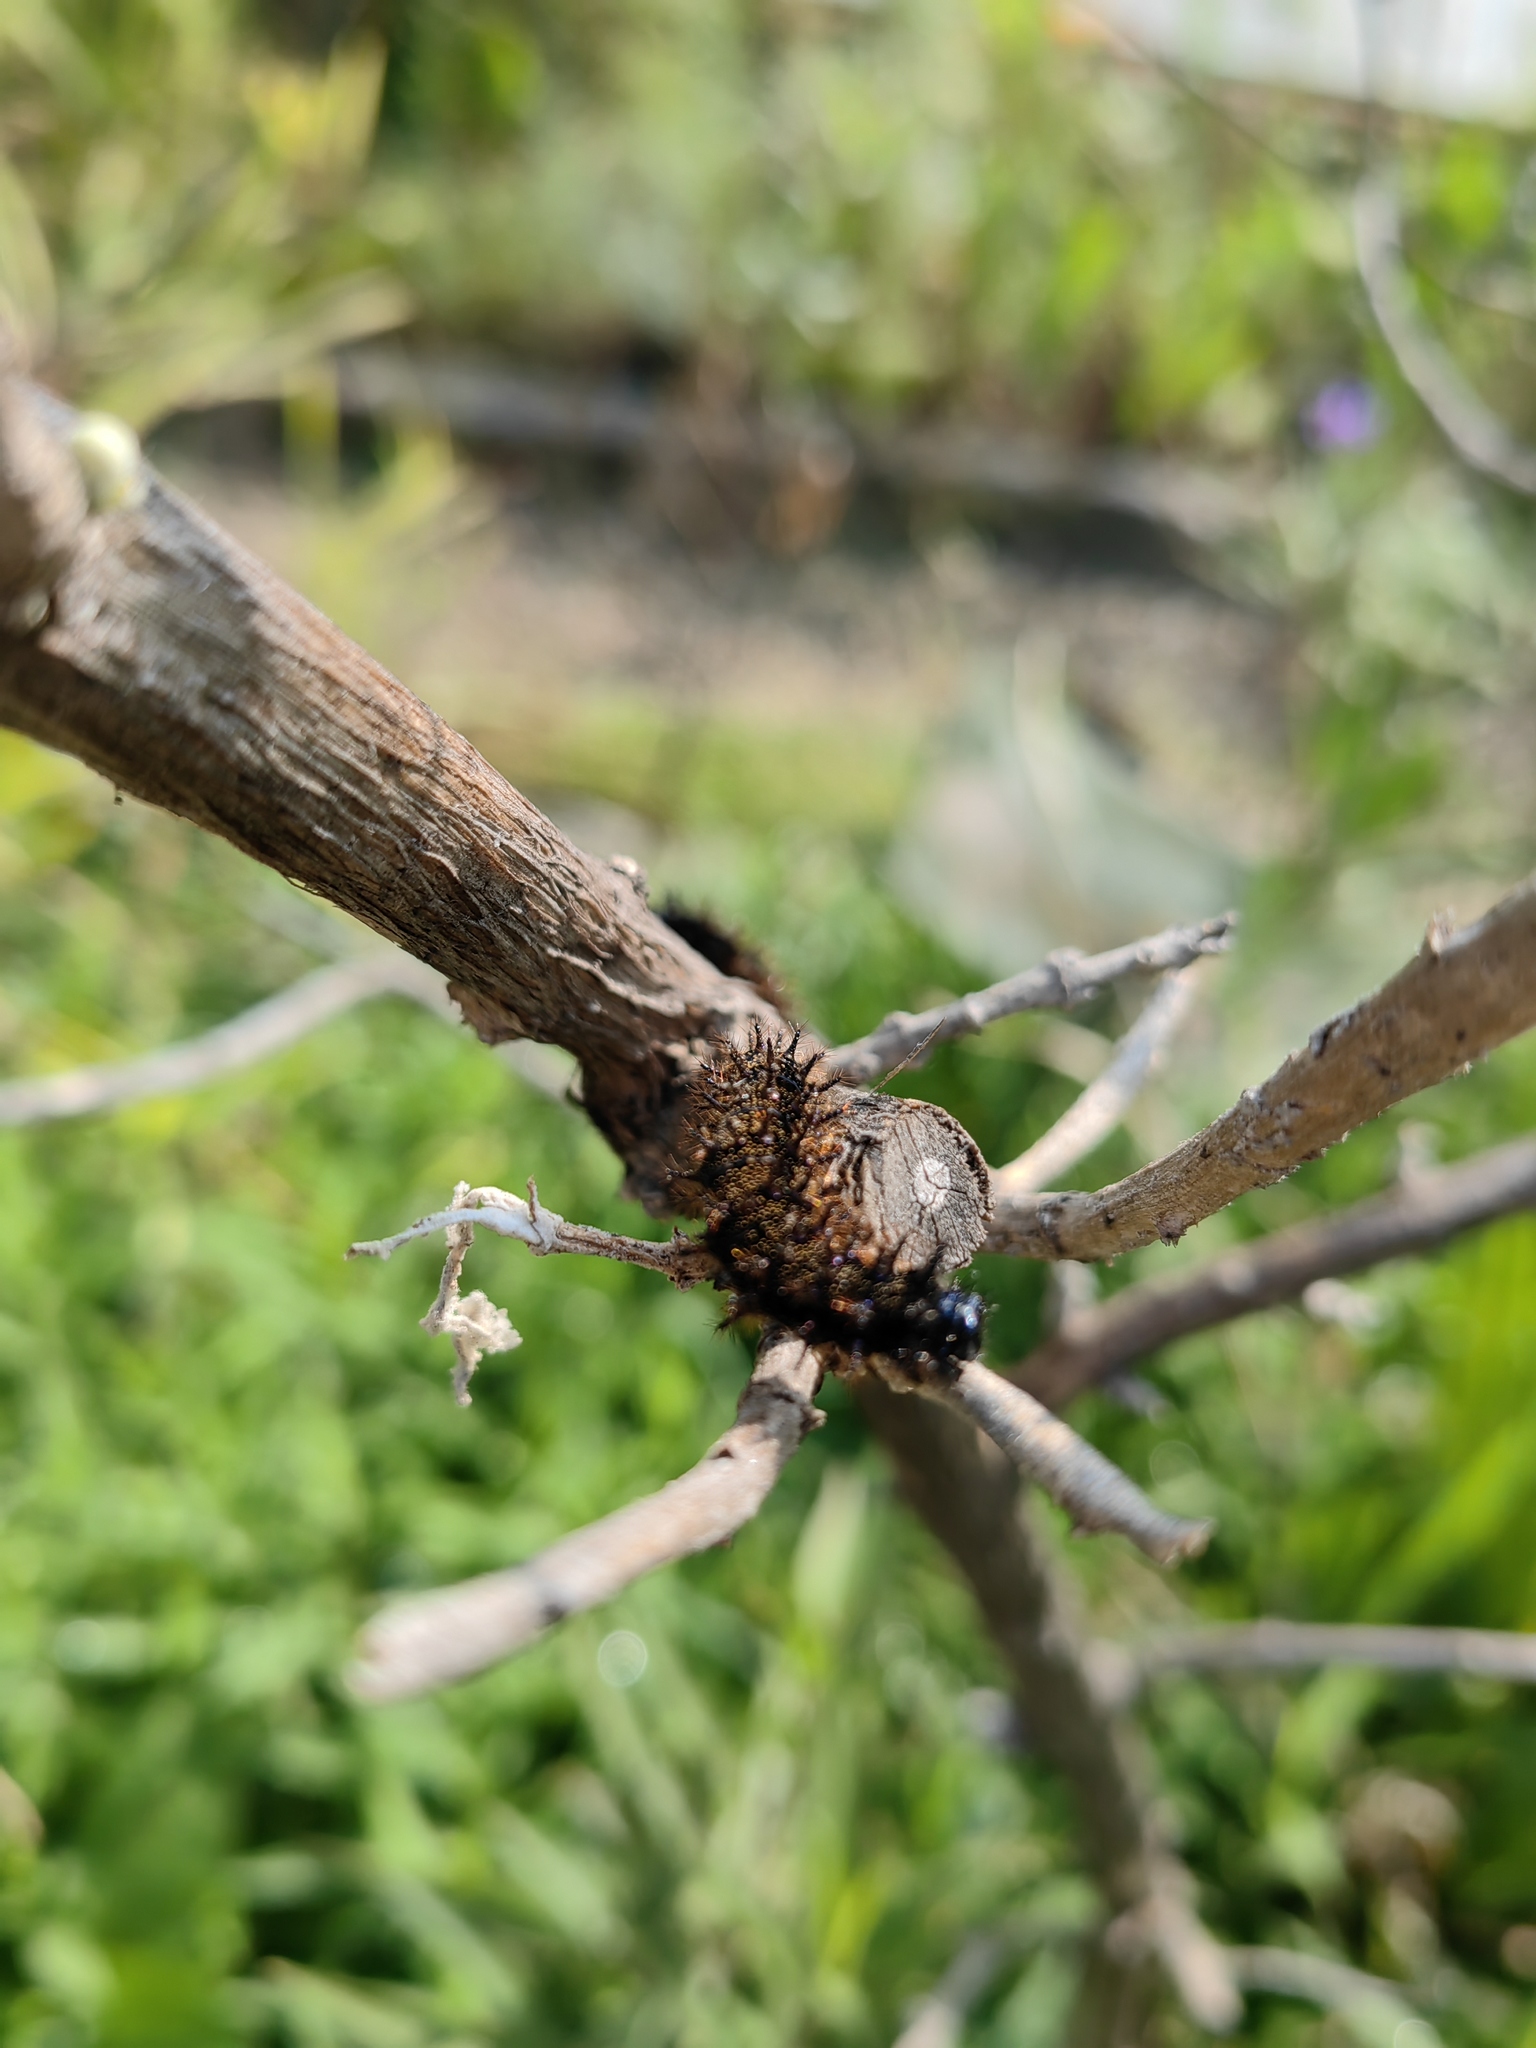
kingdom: Animalia
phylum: Arthropoda
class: Insecta
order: Lepidoptera
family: Nymphalidae
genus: Chlosyne
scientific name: Chlosyne ehrenbergii
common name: White-rayed patch
